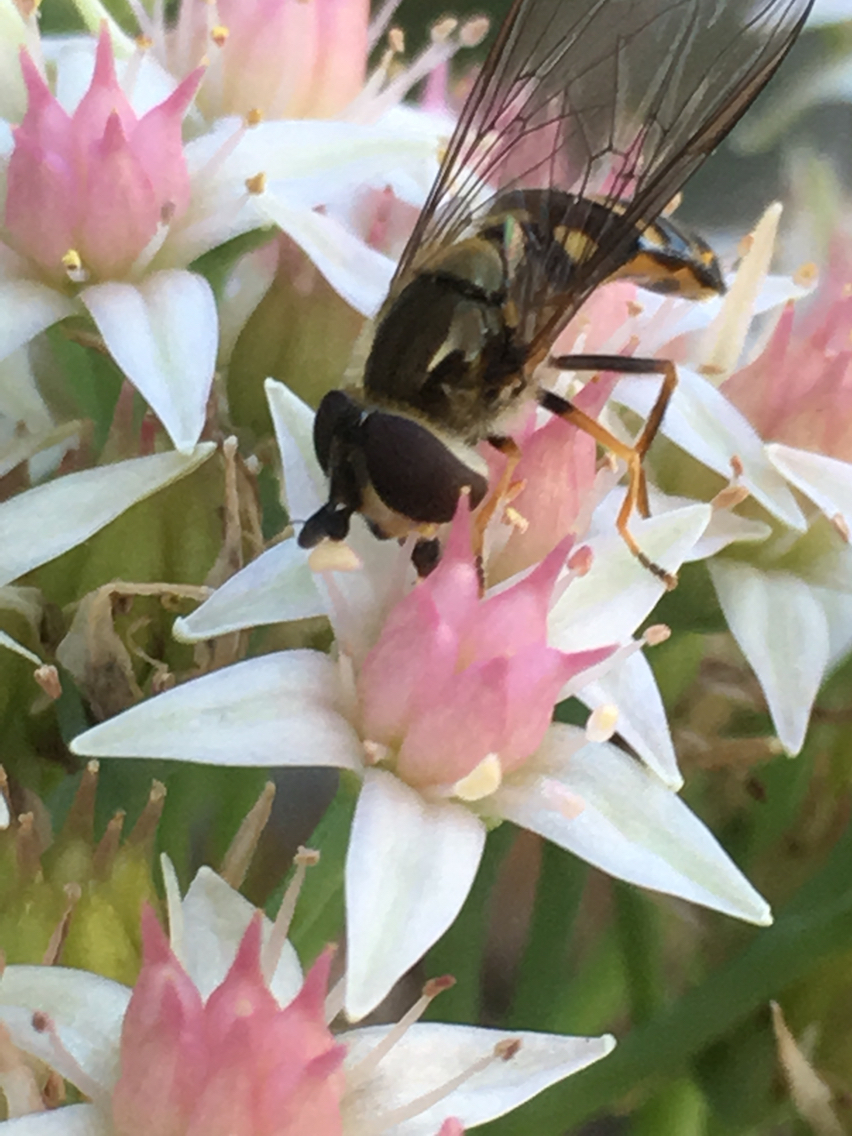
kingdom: Animalia
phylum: Arthropoda
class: Insecta
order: Diptera
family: Syrphidae
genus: Eupeodes
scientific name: Eupeodes
